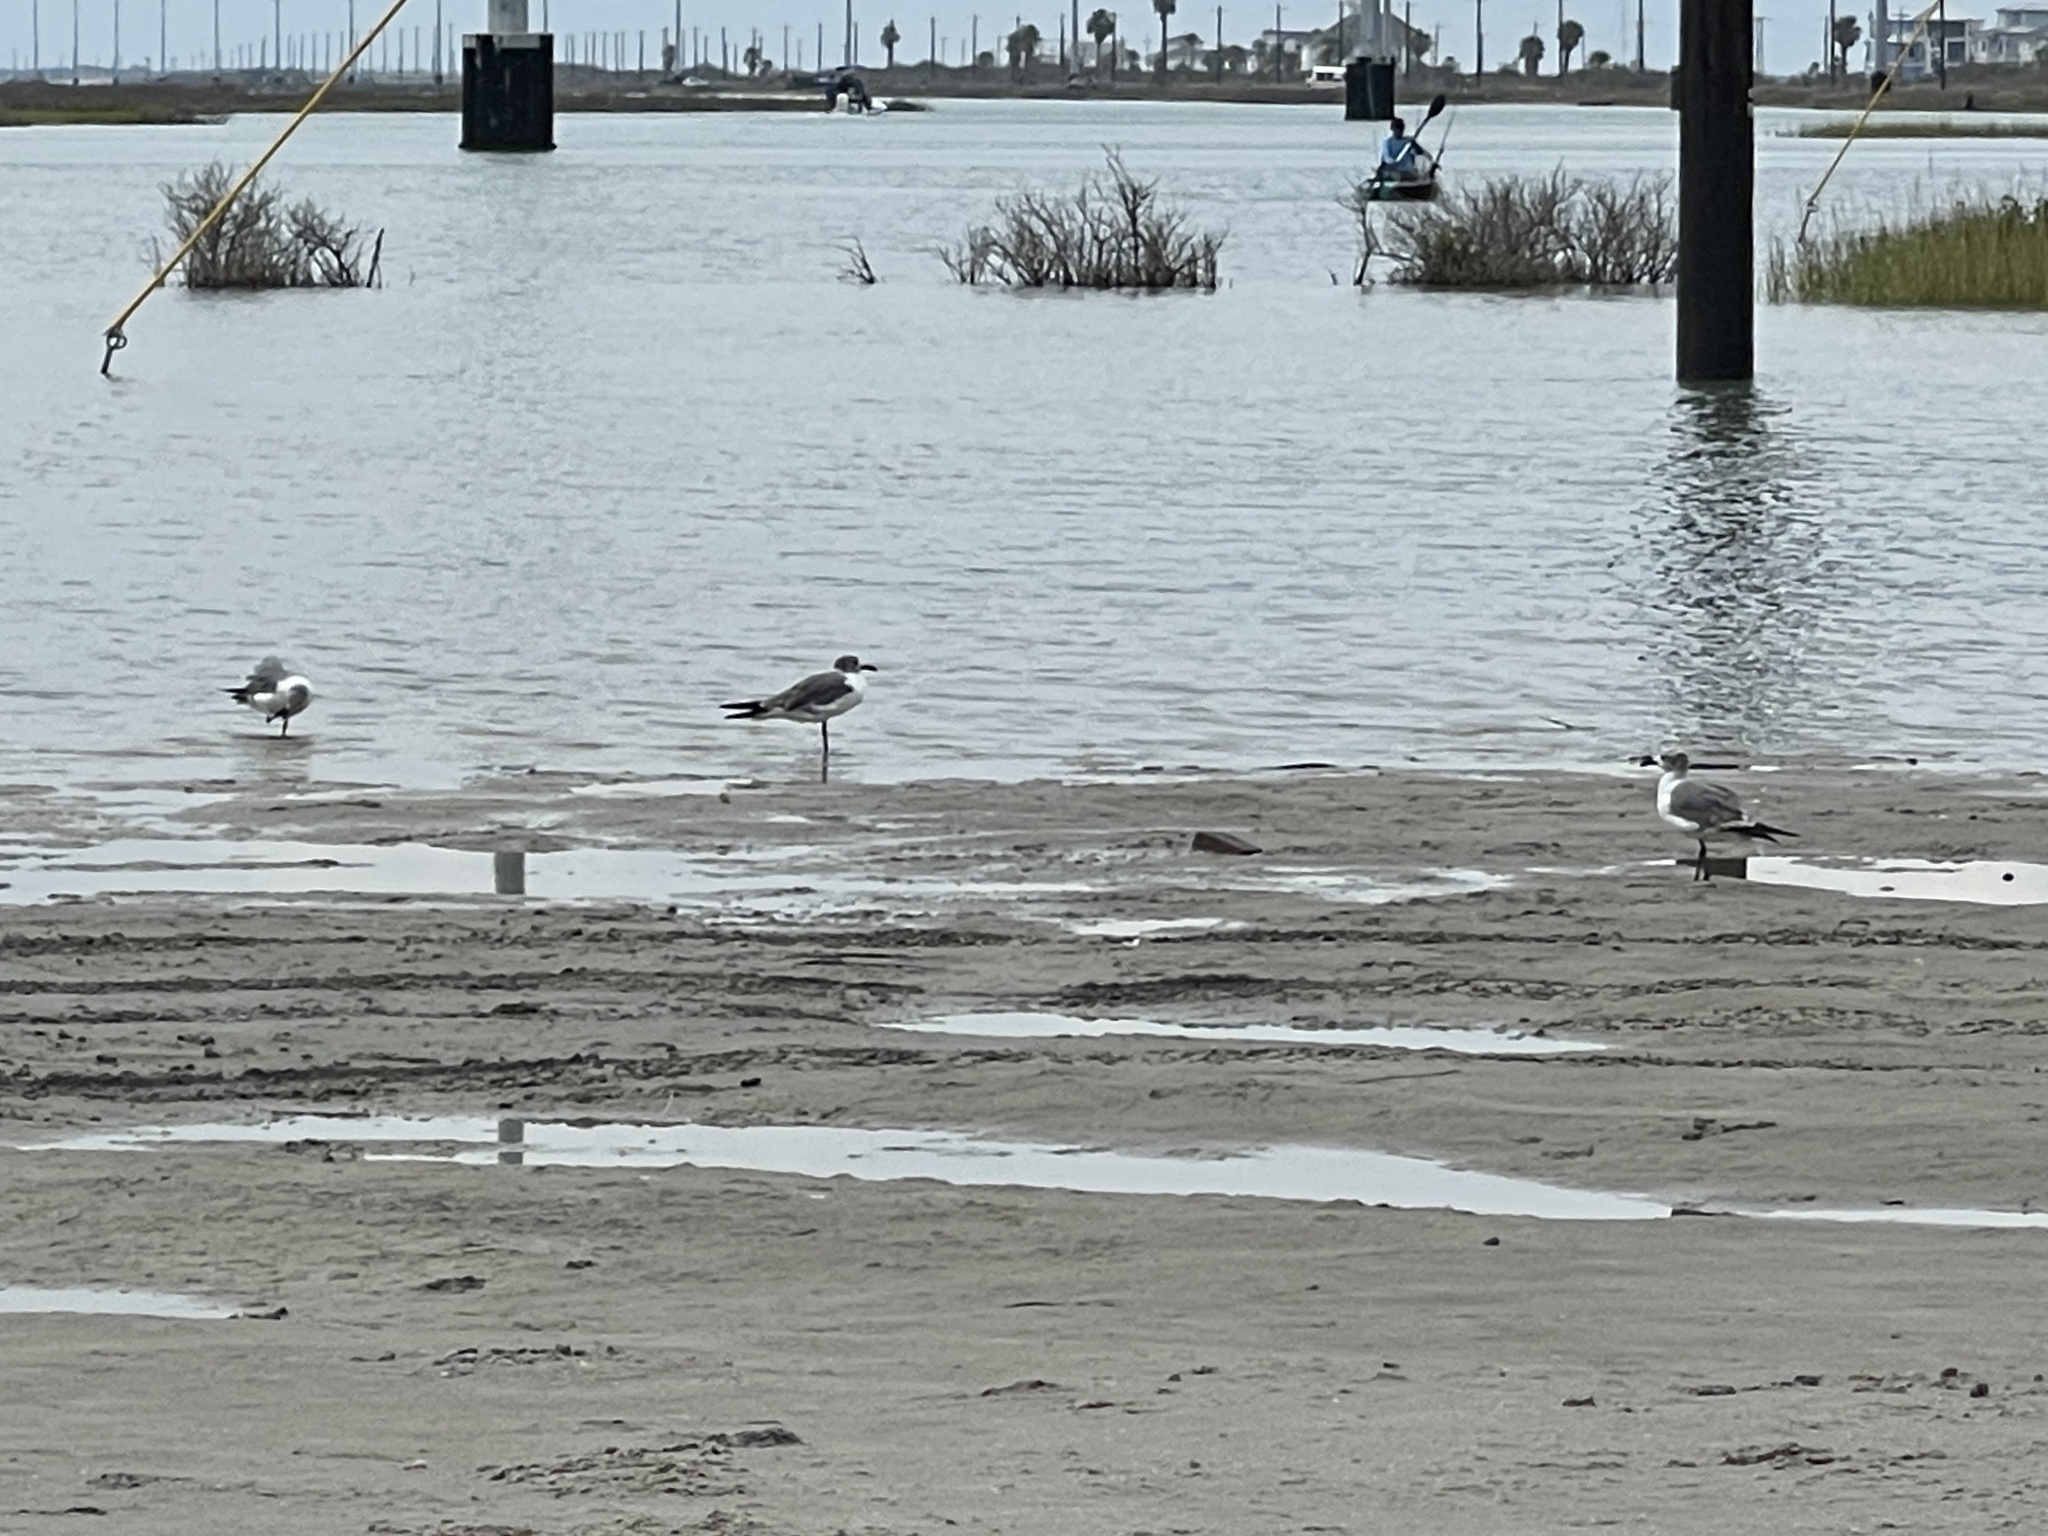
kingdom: Animalia
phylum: Chordata
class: Aves
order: Charadriiformes
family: Laridae
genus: Leucophaeus
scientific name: Leucophaeus atricilla
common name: Laughing gull
